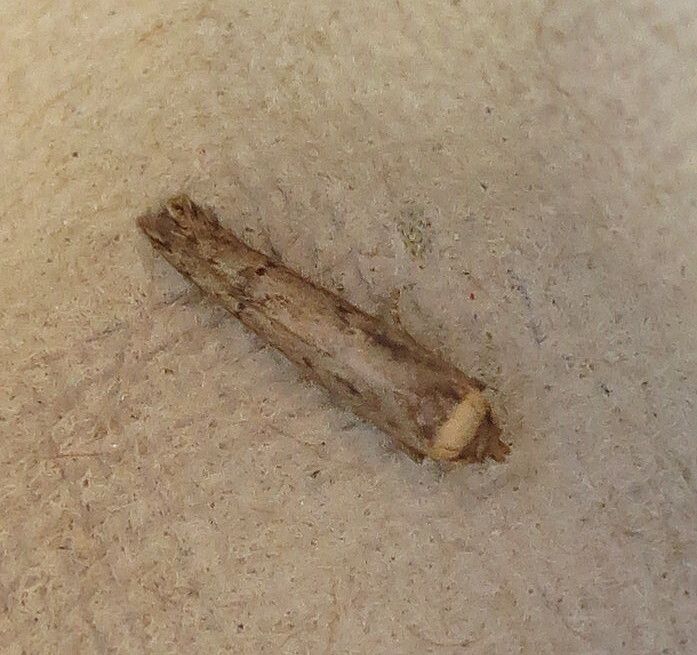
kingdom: Animalia
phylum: Arthropoda
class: Insecta
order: Lepidoptera
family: Blastobasidae
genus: Blastobasis
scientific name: Blastobasis adustella
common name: Dingy dowd
